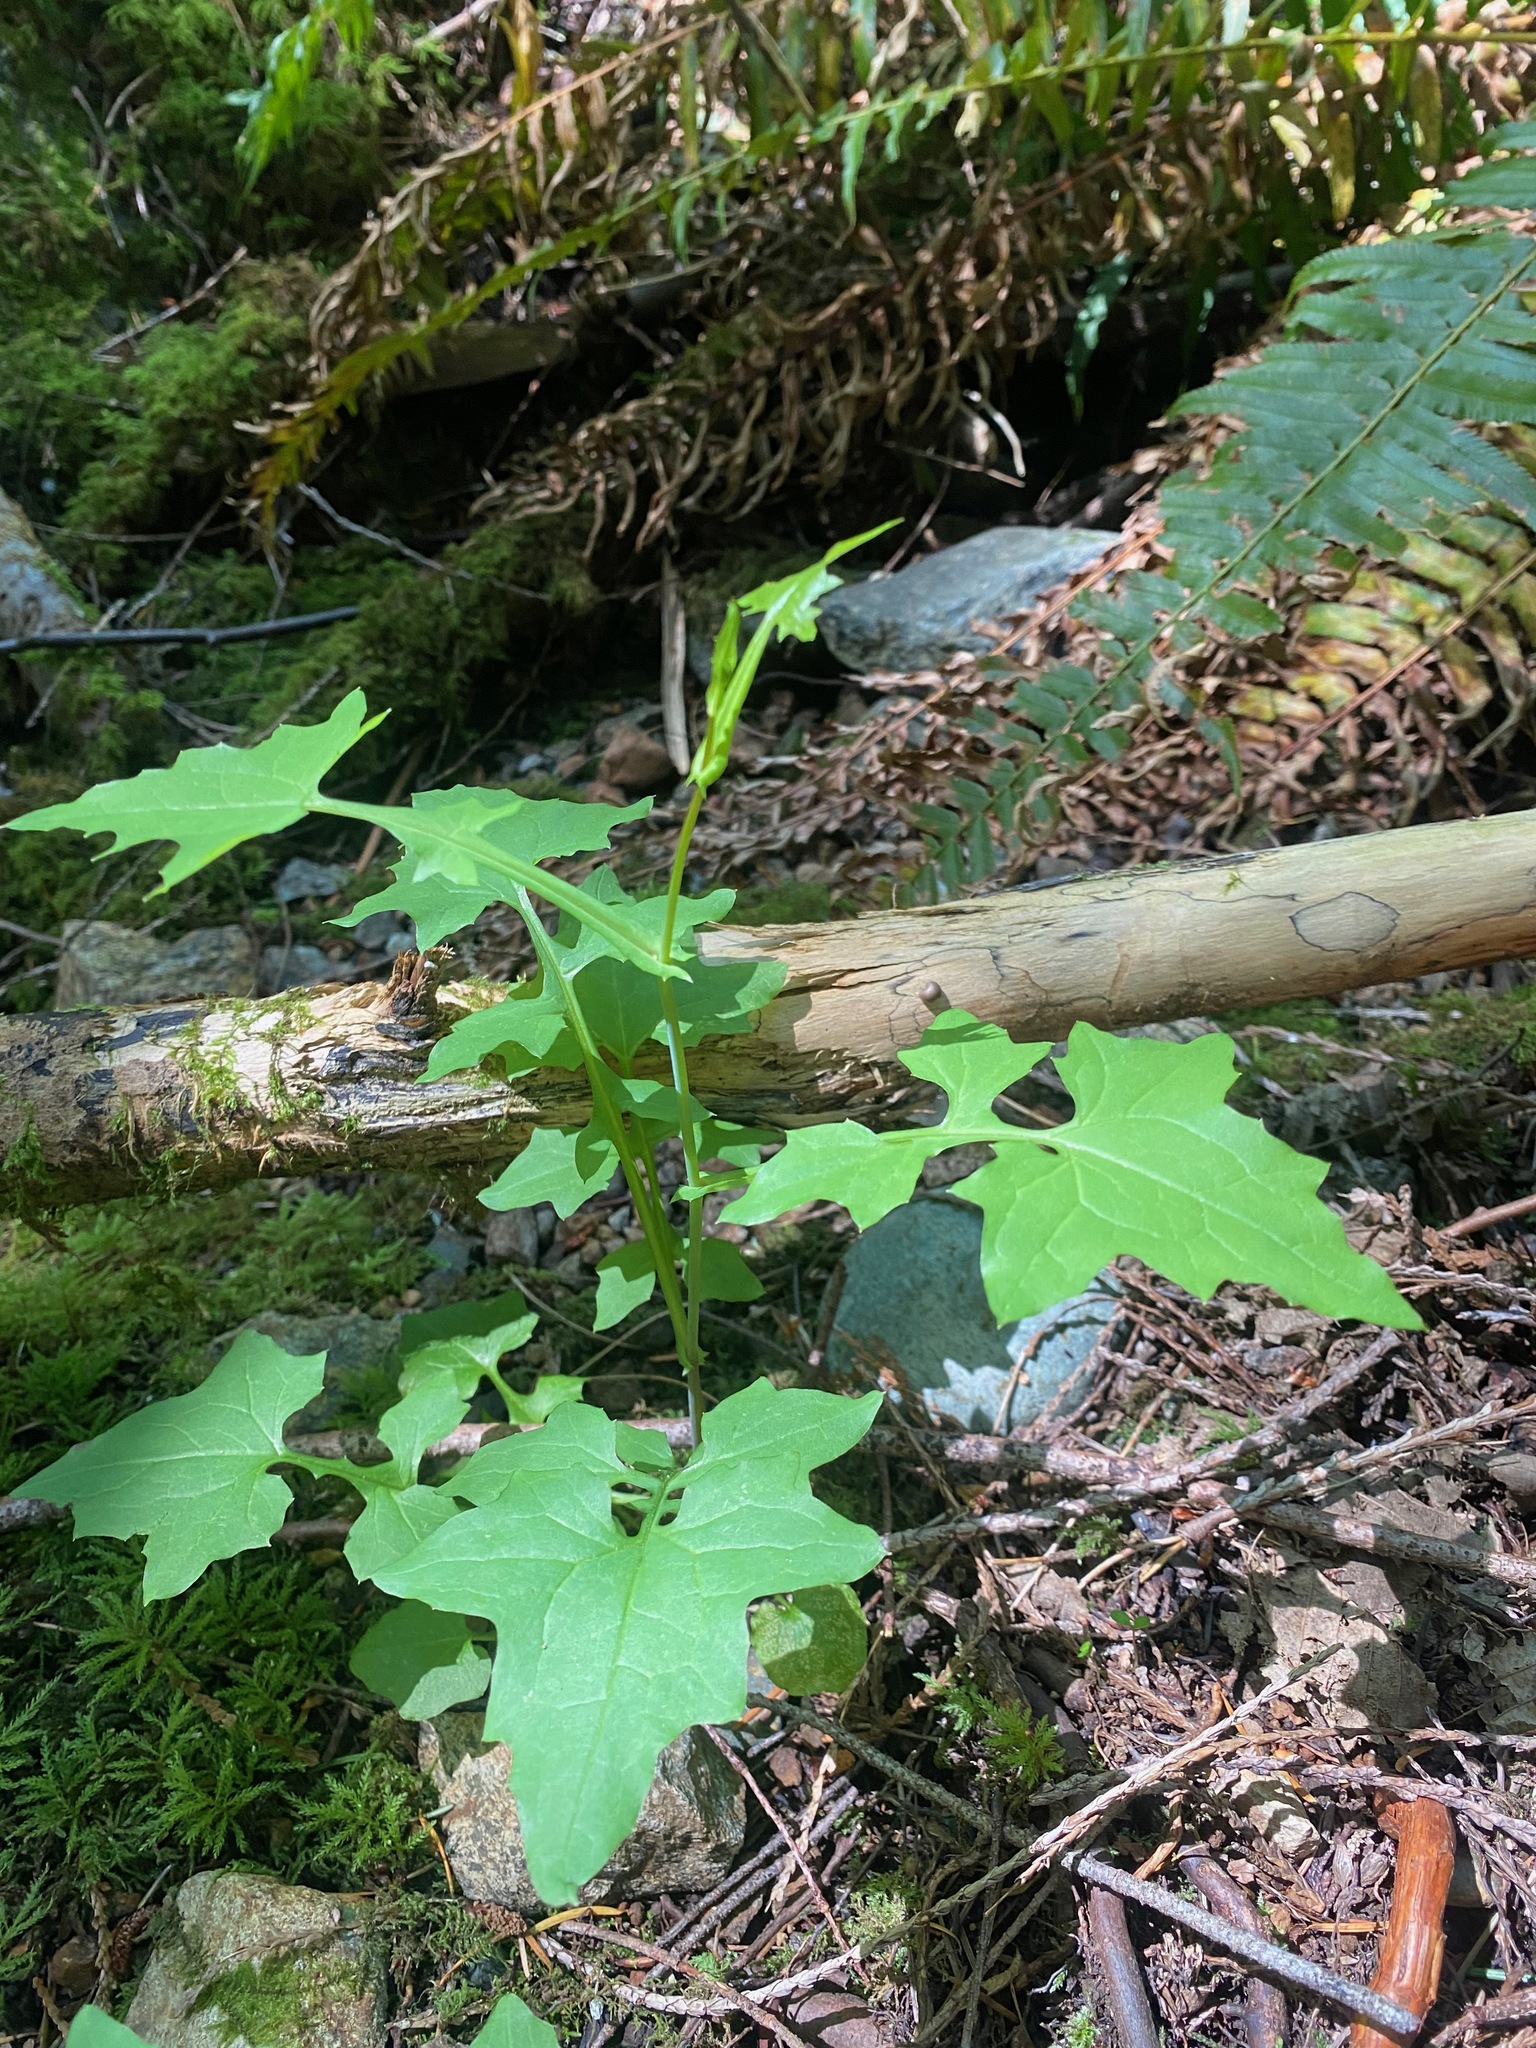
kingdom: Plantae
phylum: Tracheophyta
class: Magnoliopsida
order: Asterales
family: Asteraceae
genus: Mycelis
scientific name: Mycelis muralis
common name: Wall lettuce
